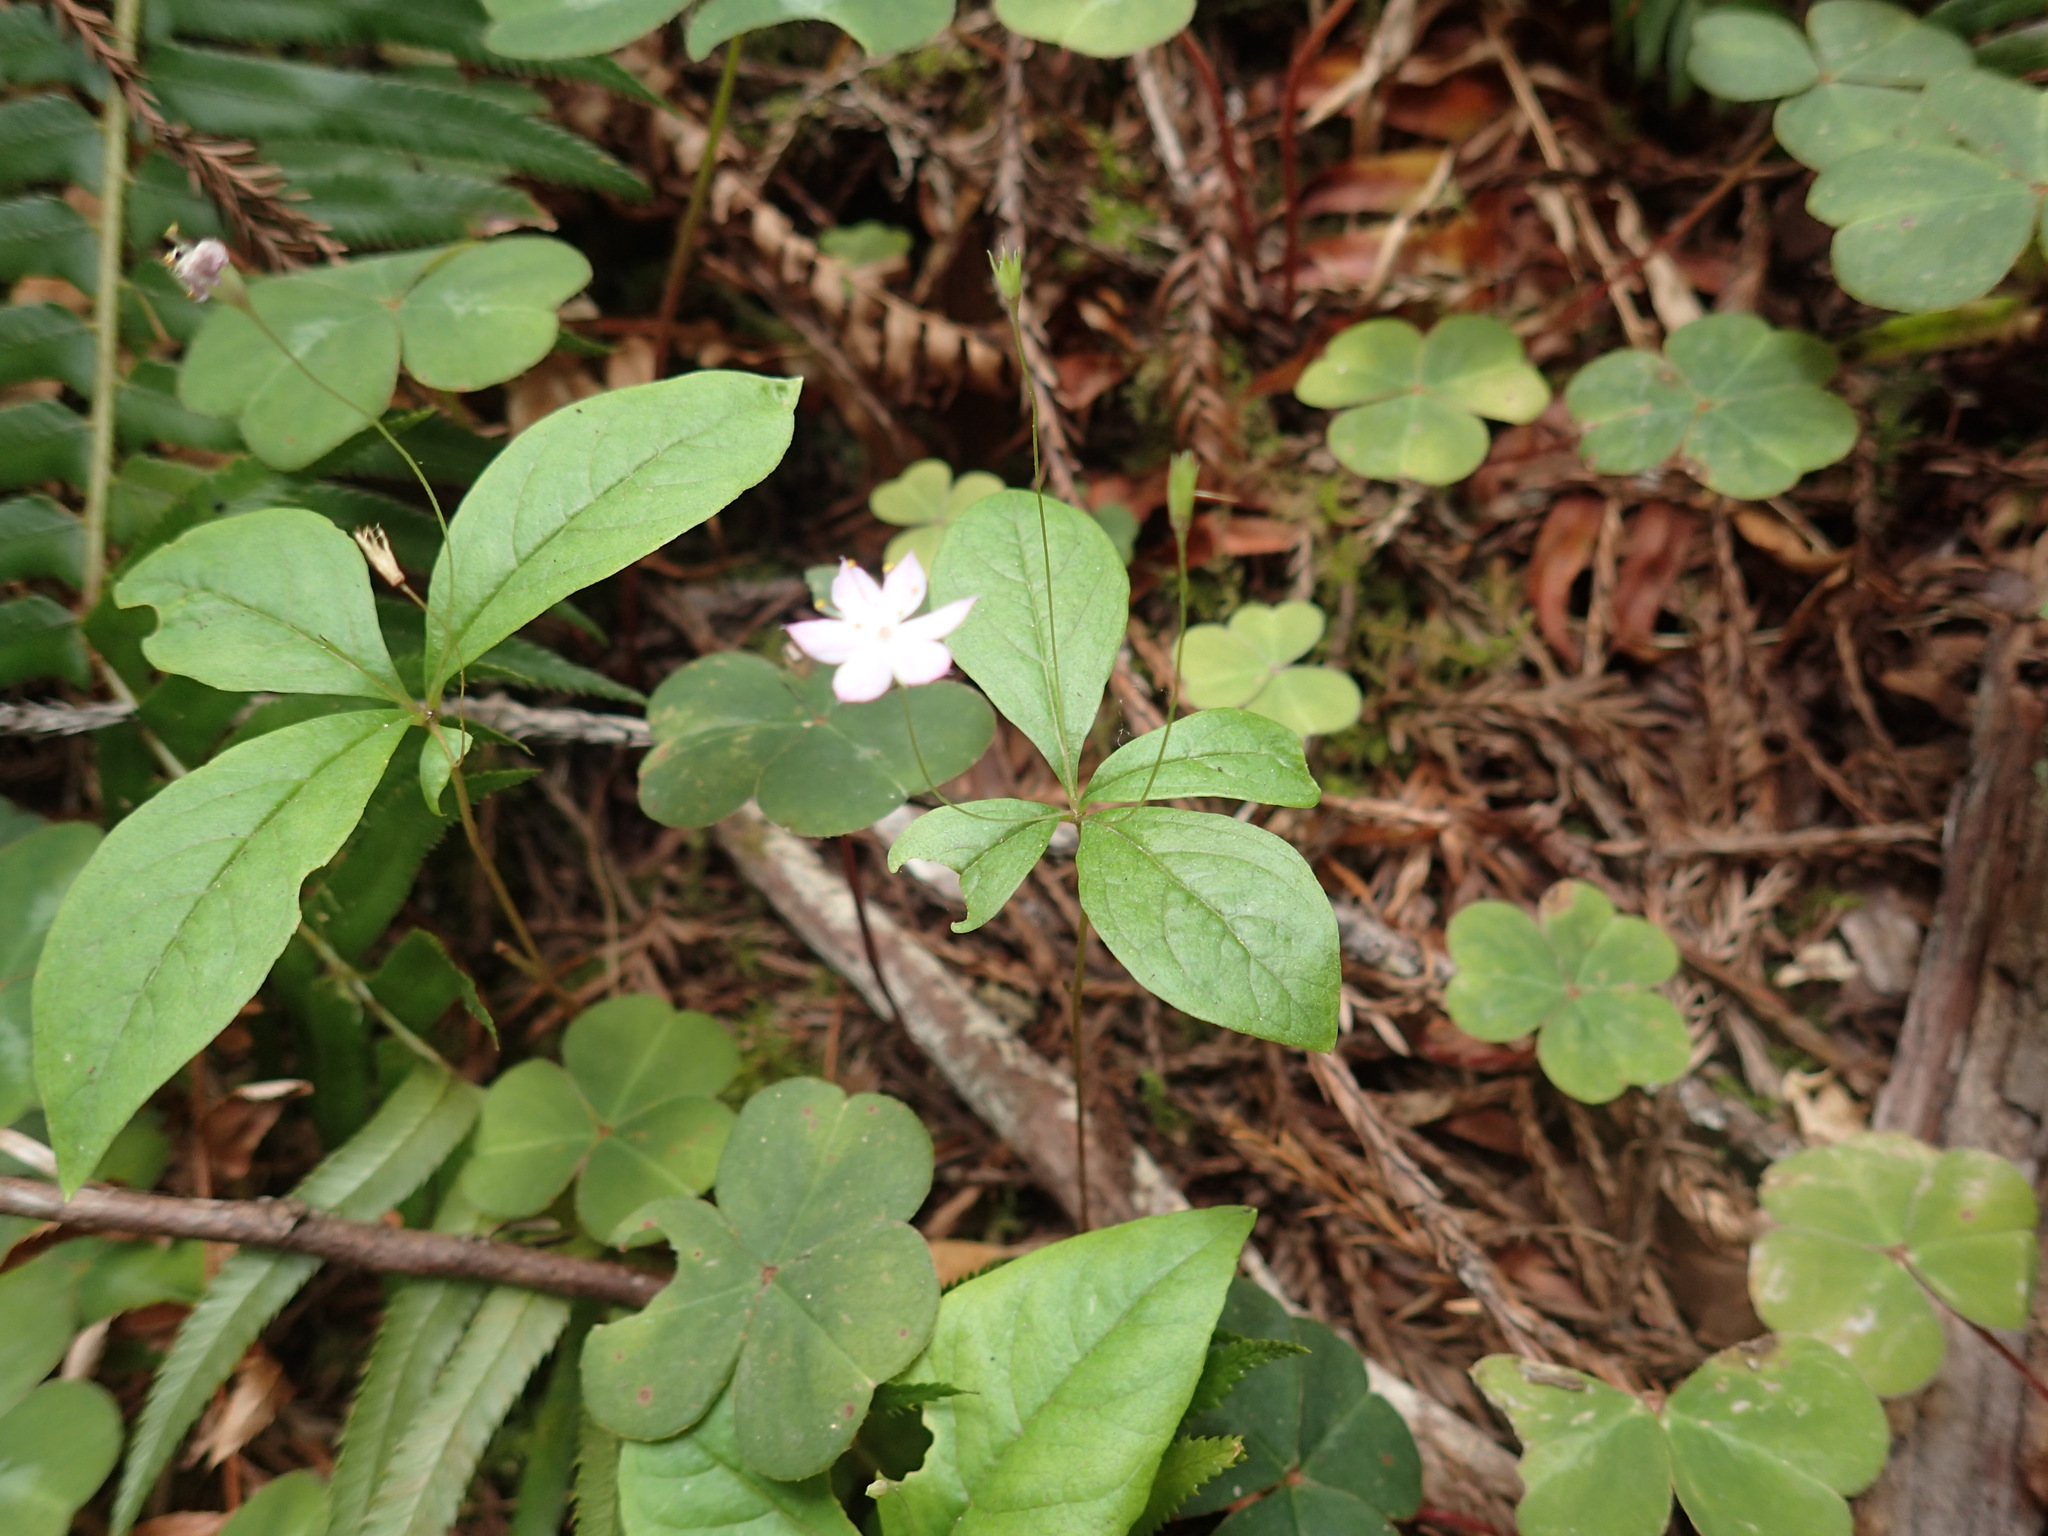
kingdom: Plantae
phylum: Tracheophyta
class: Magnoliopsida
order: Ericales
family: Primulaceae
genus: Lysimachia
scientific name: Lysimachia latifolia
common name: Pacific starflower
